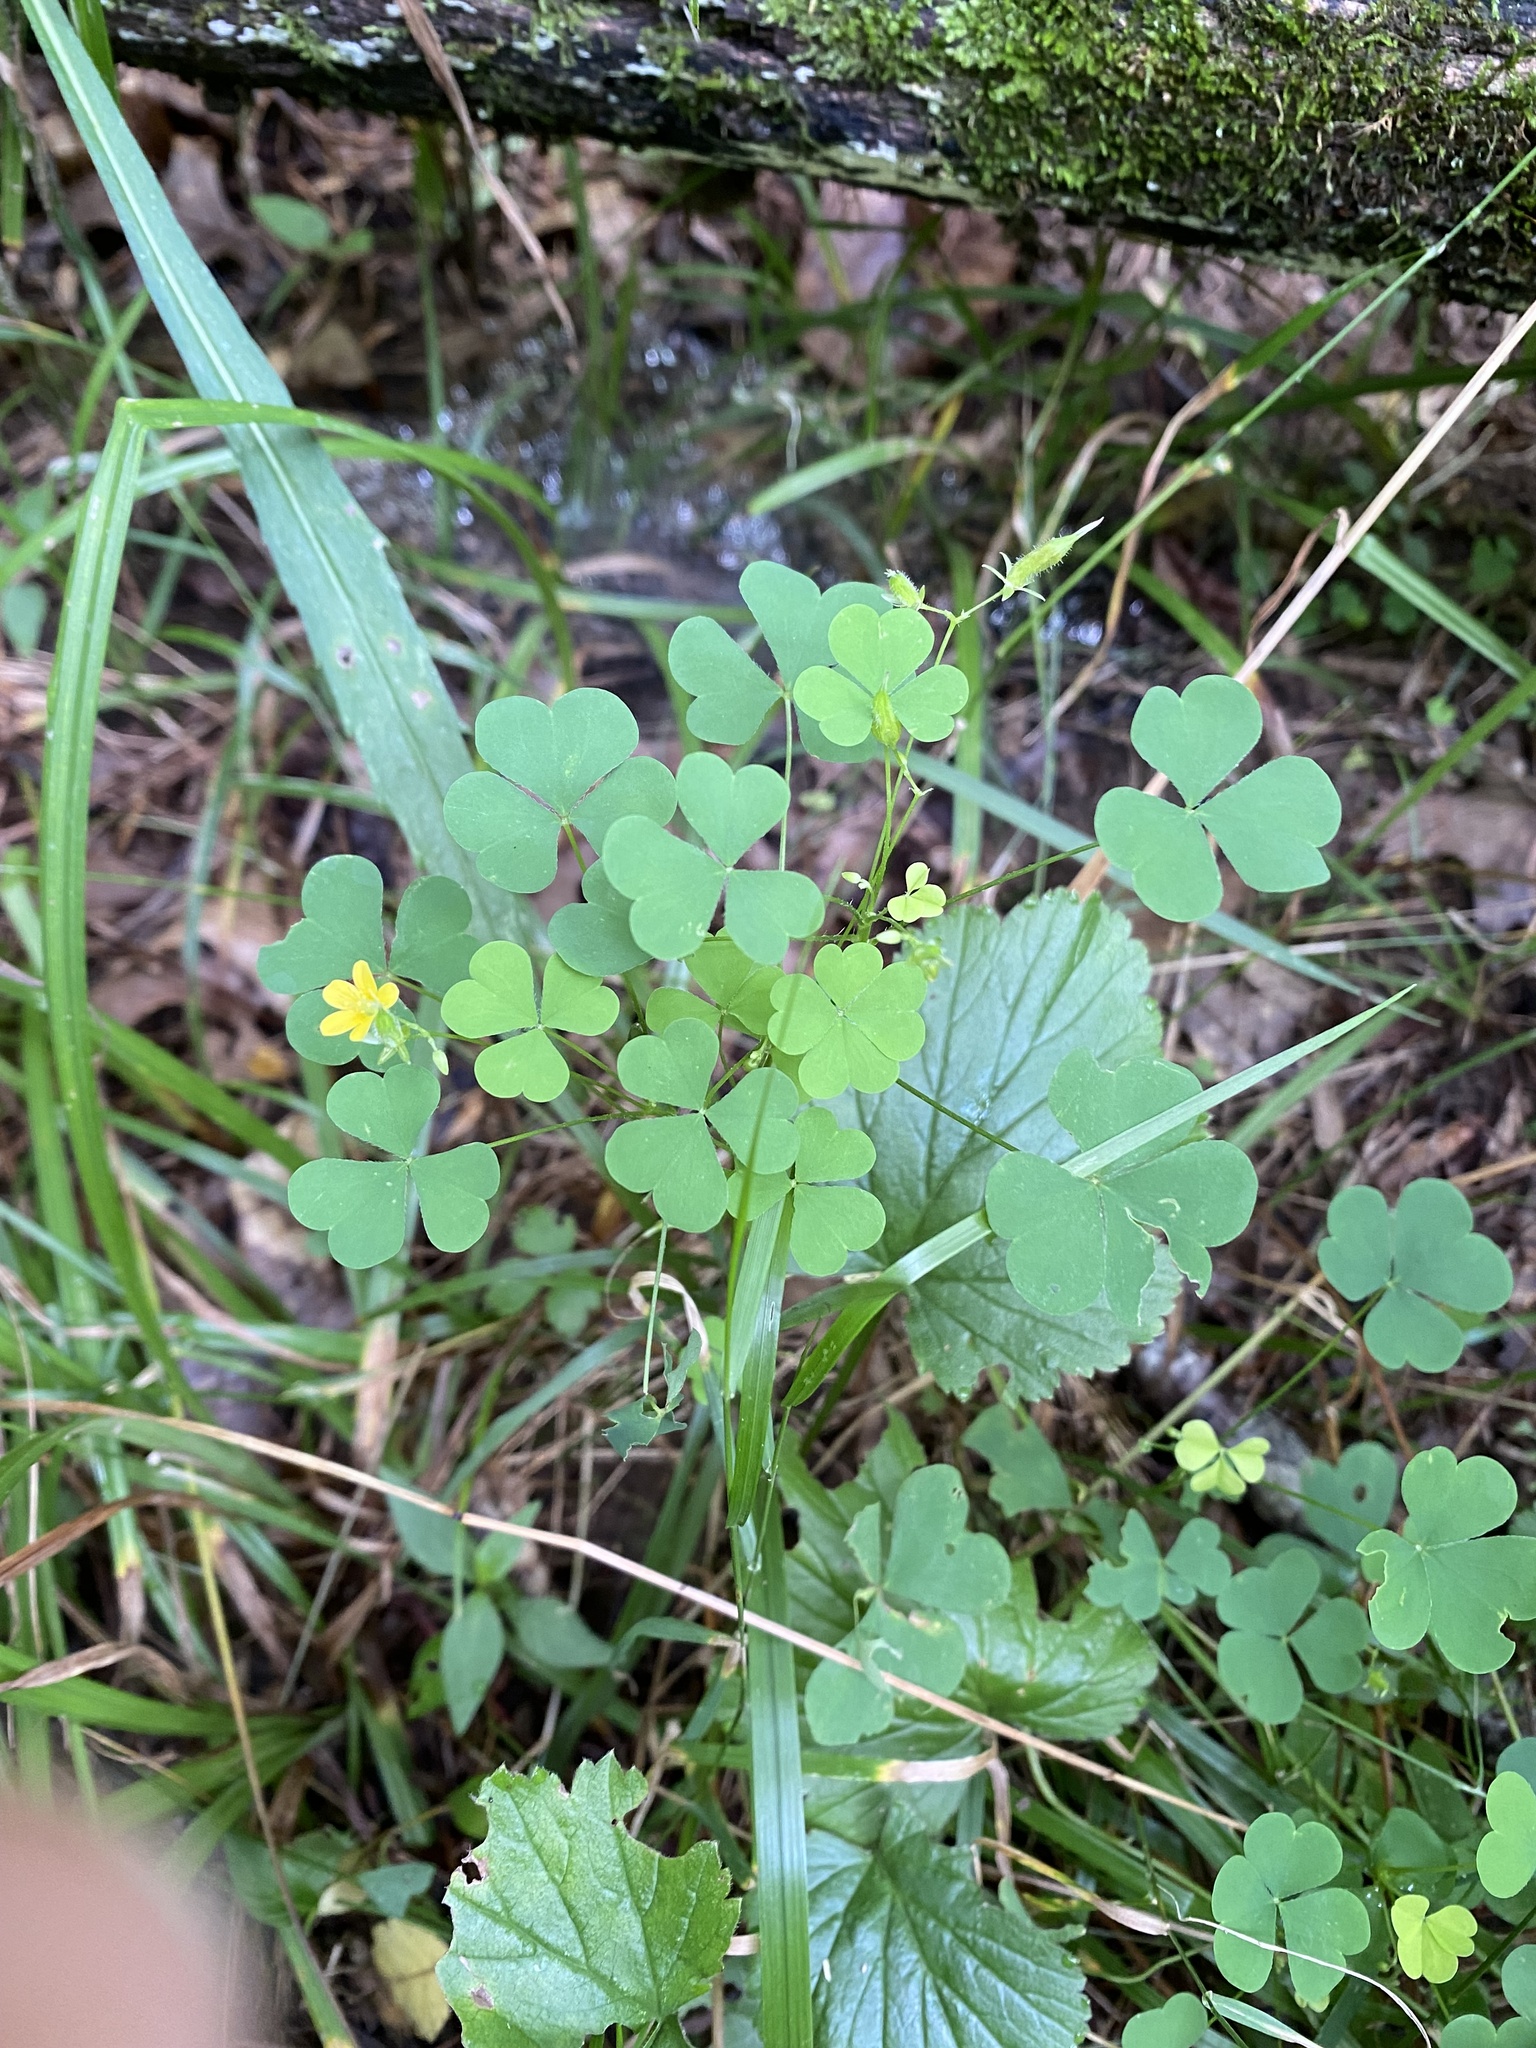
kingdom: Plantae
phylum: Tracheophyta
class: Magnoliopsida
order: Oxalidales
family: Oxalidaceae
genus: Oxalis
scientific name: Oxalis stricta
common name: Upright yellow-sorrel
